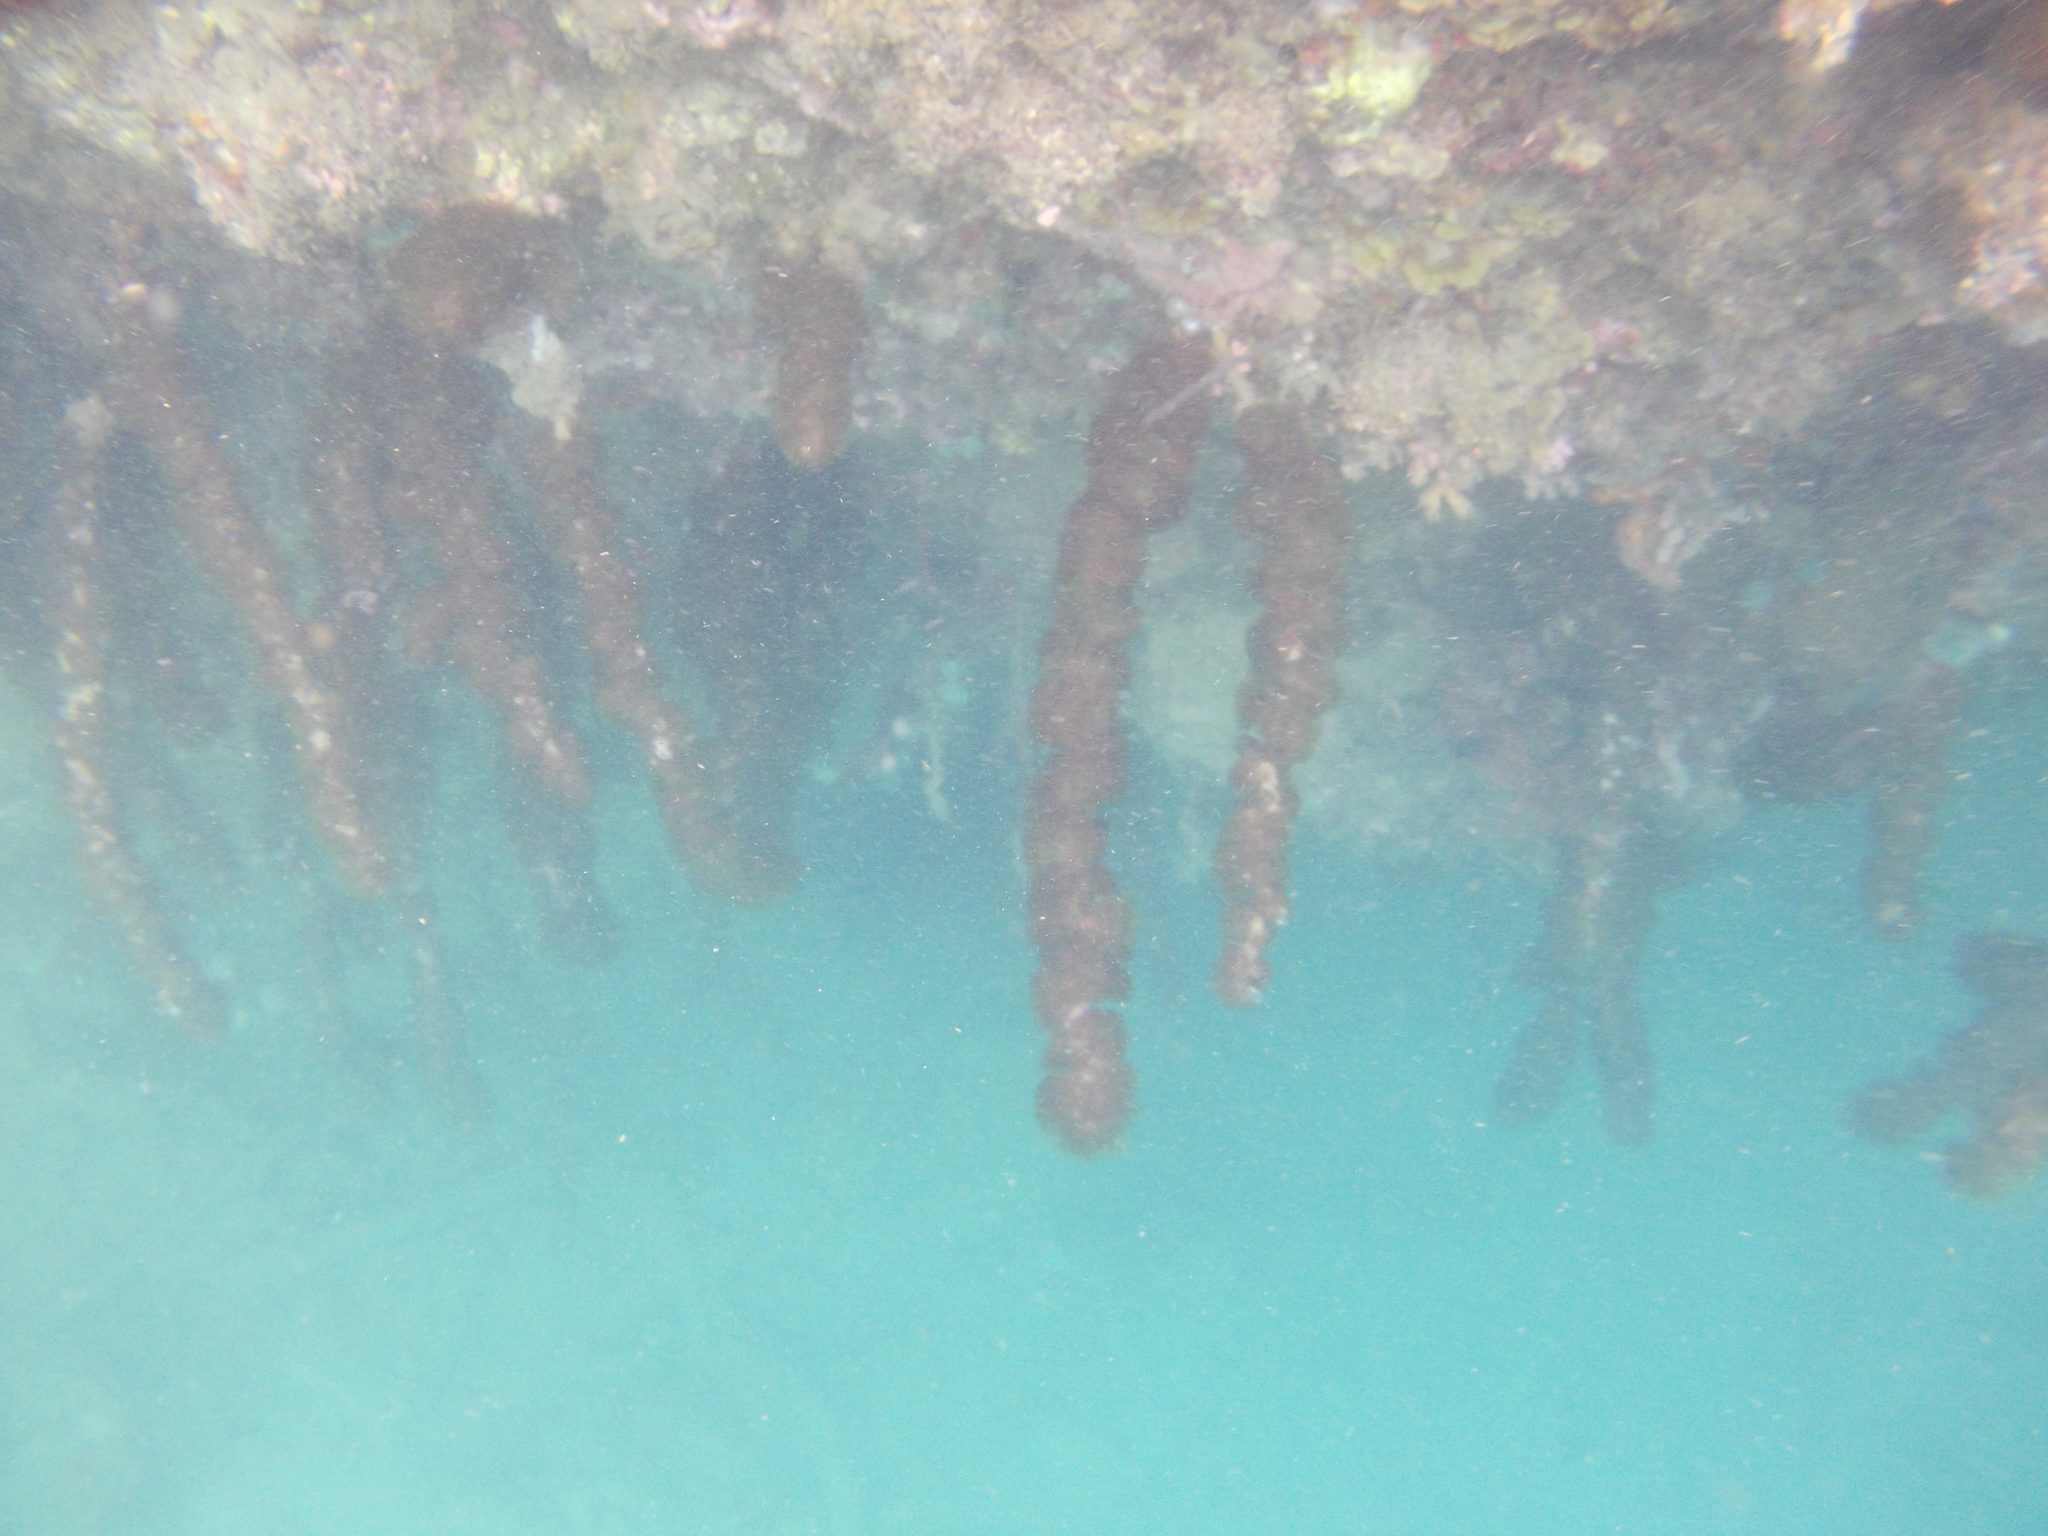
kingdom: Animalia
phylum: Cnidaria
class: Anthozoa
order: Zoantharia
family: Zoanthidae
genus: Acrozoanthus
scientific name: Acrozoanthus australiae
